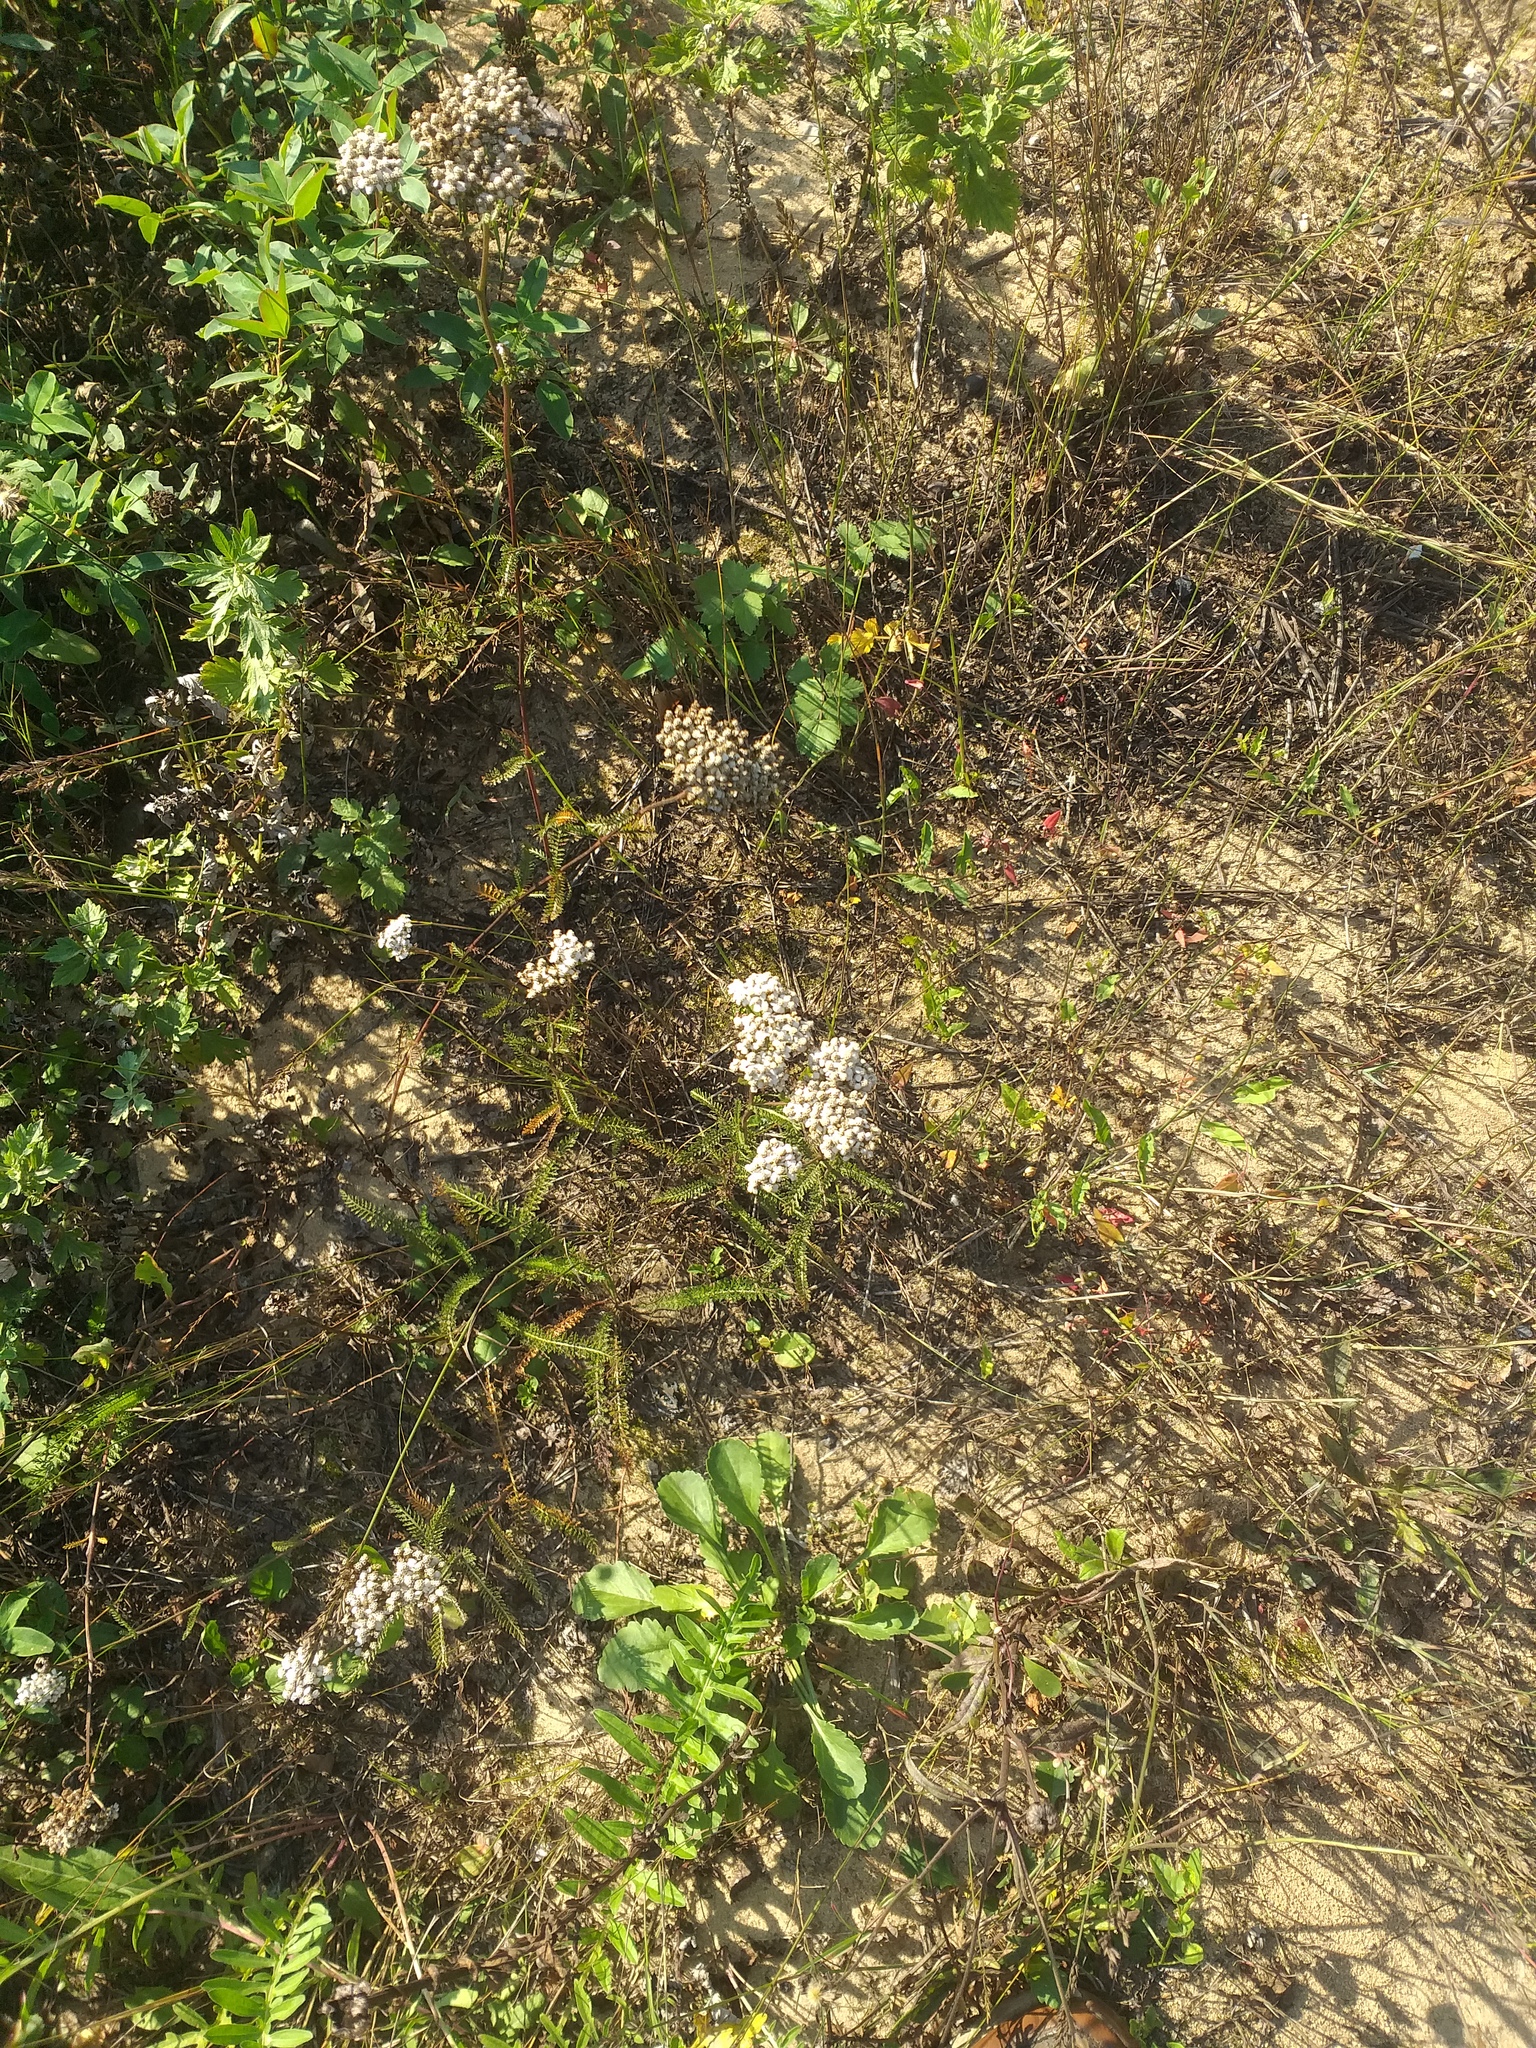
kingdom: Plantae
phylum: Tracheophyta
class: Magnoliopsida
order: Asterales
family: Asteraceae
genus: Achillea
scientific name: Achillea millefolium
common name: Yarrow
